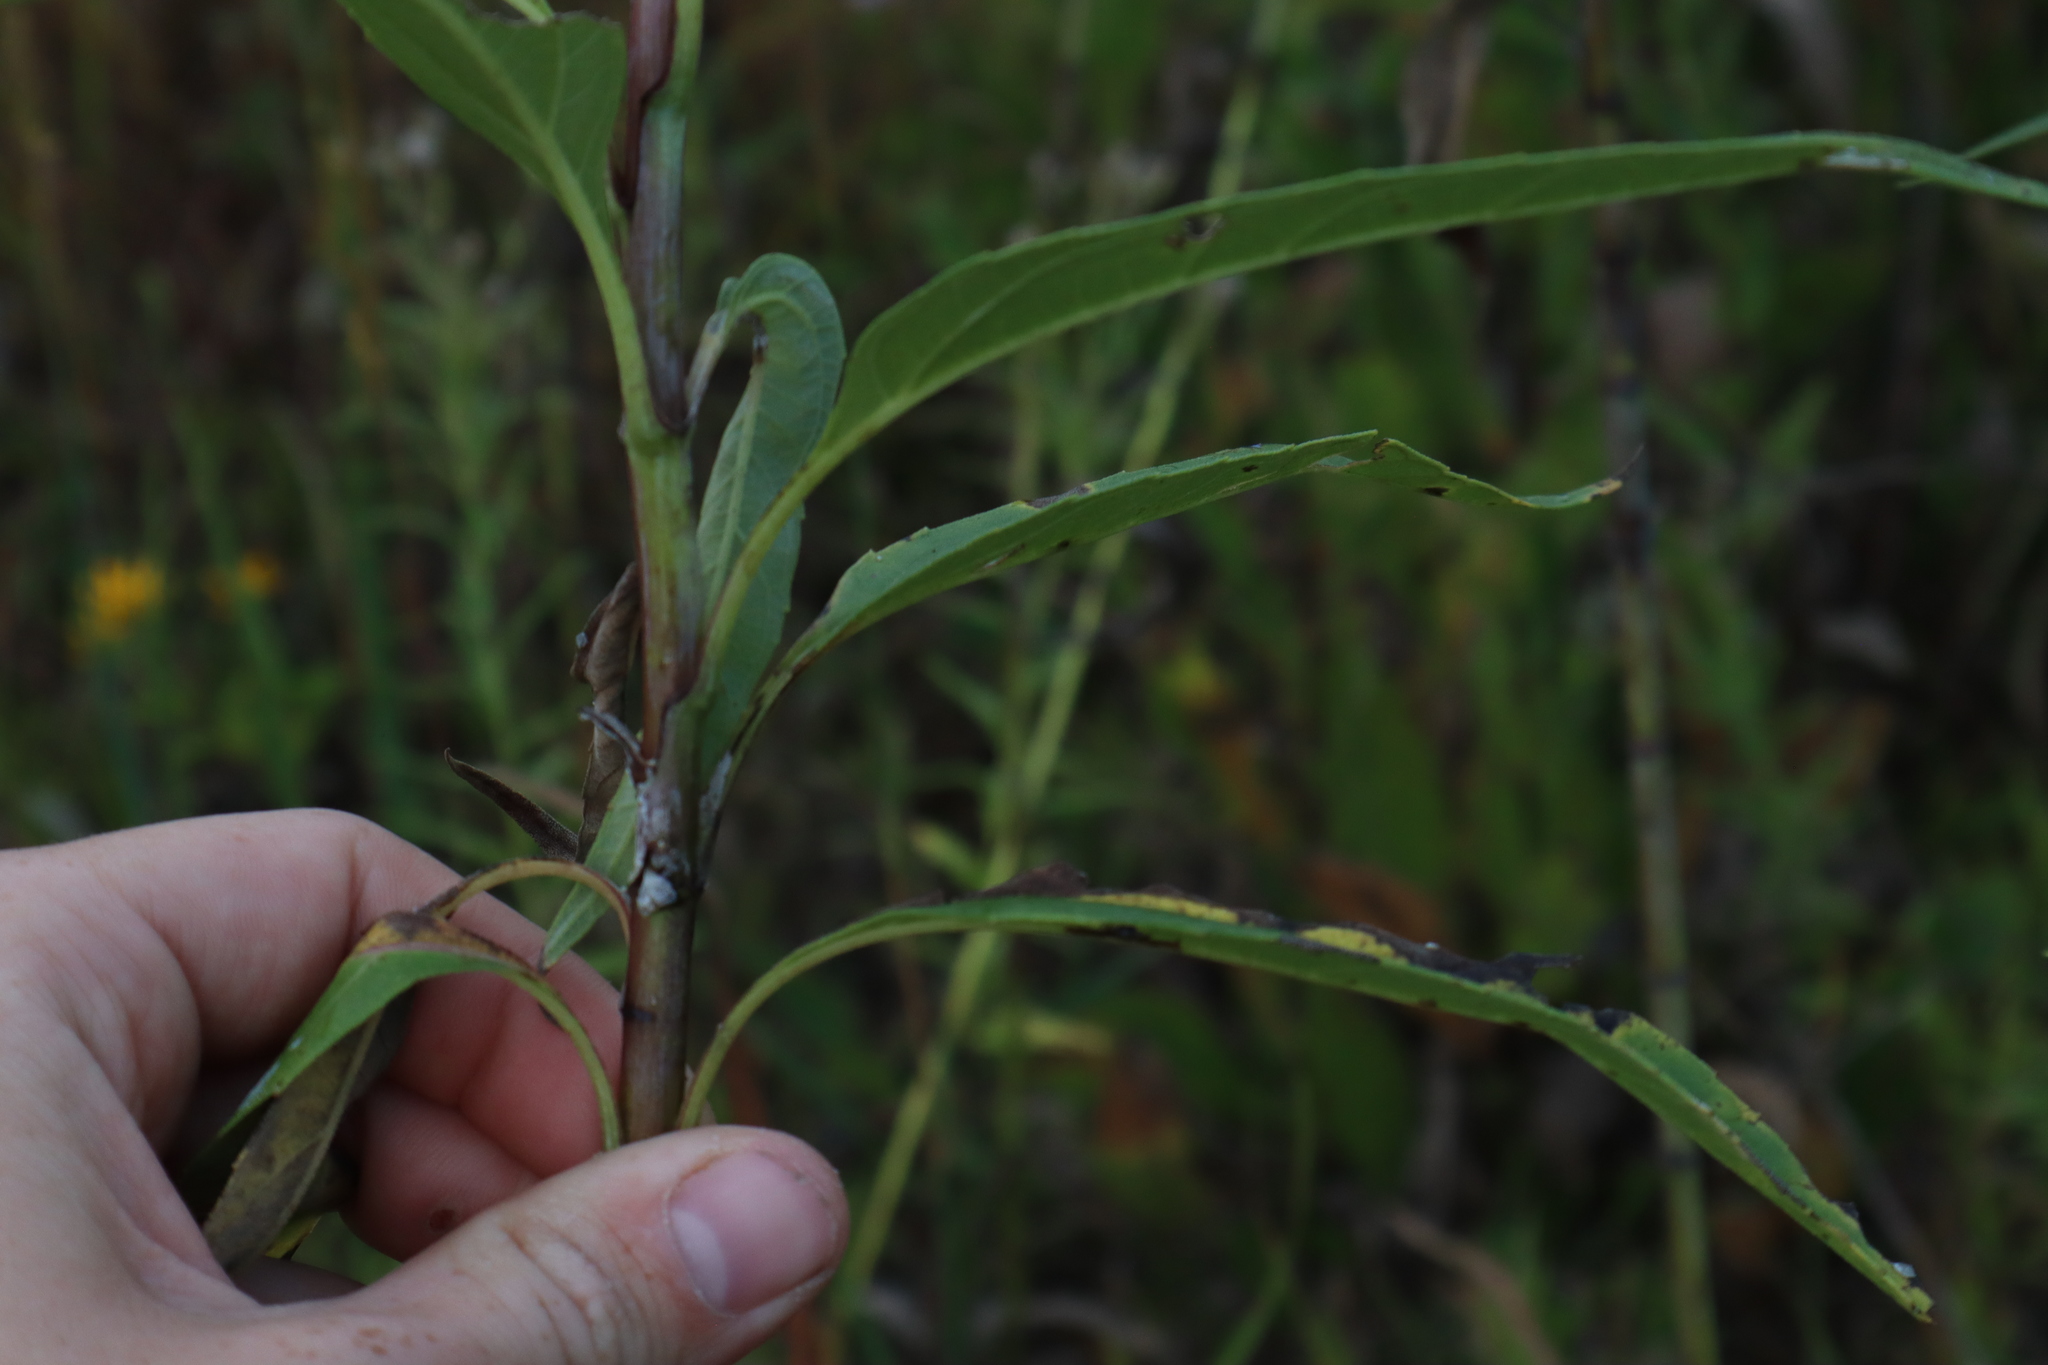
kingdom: Plantae
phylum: Tracheophyta
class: Magnoliopsida
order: Asterales
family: Asteraceae
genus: Helianthus
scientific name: Helianthus grosseserratus
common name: Sawtooth sunflower
